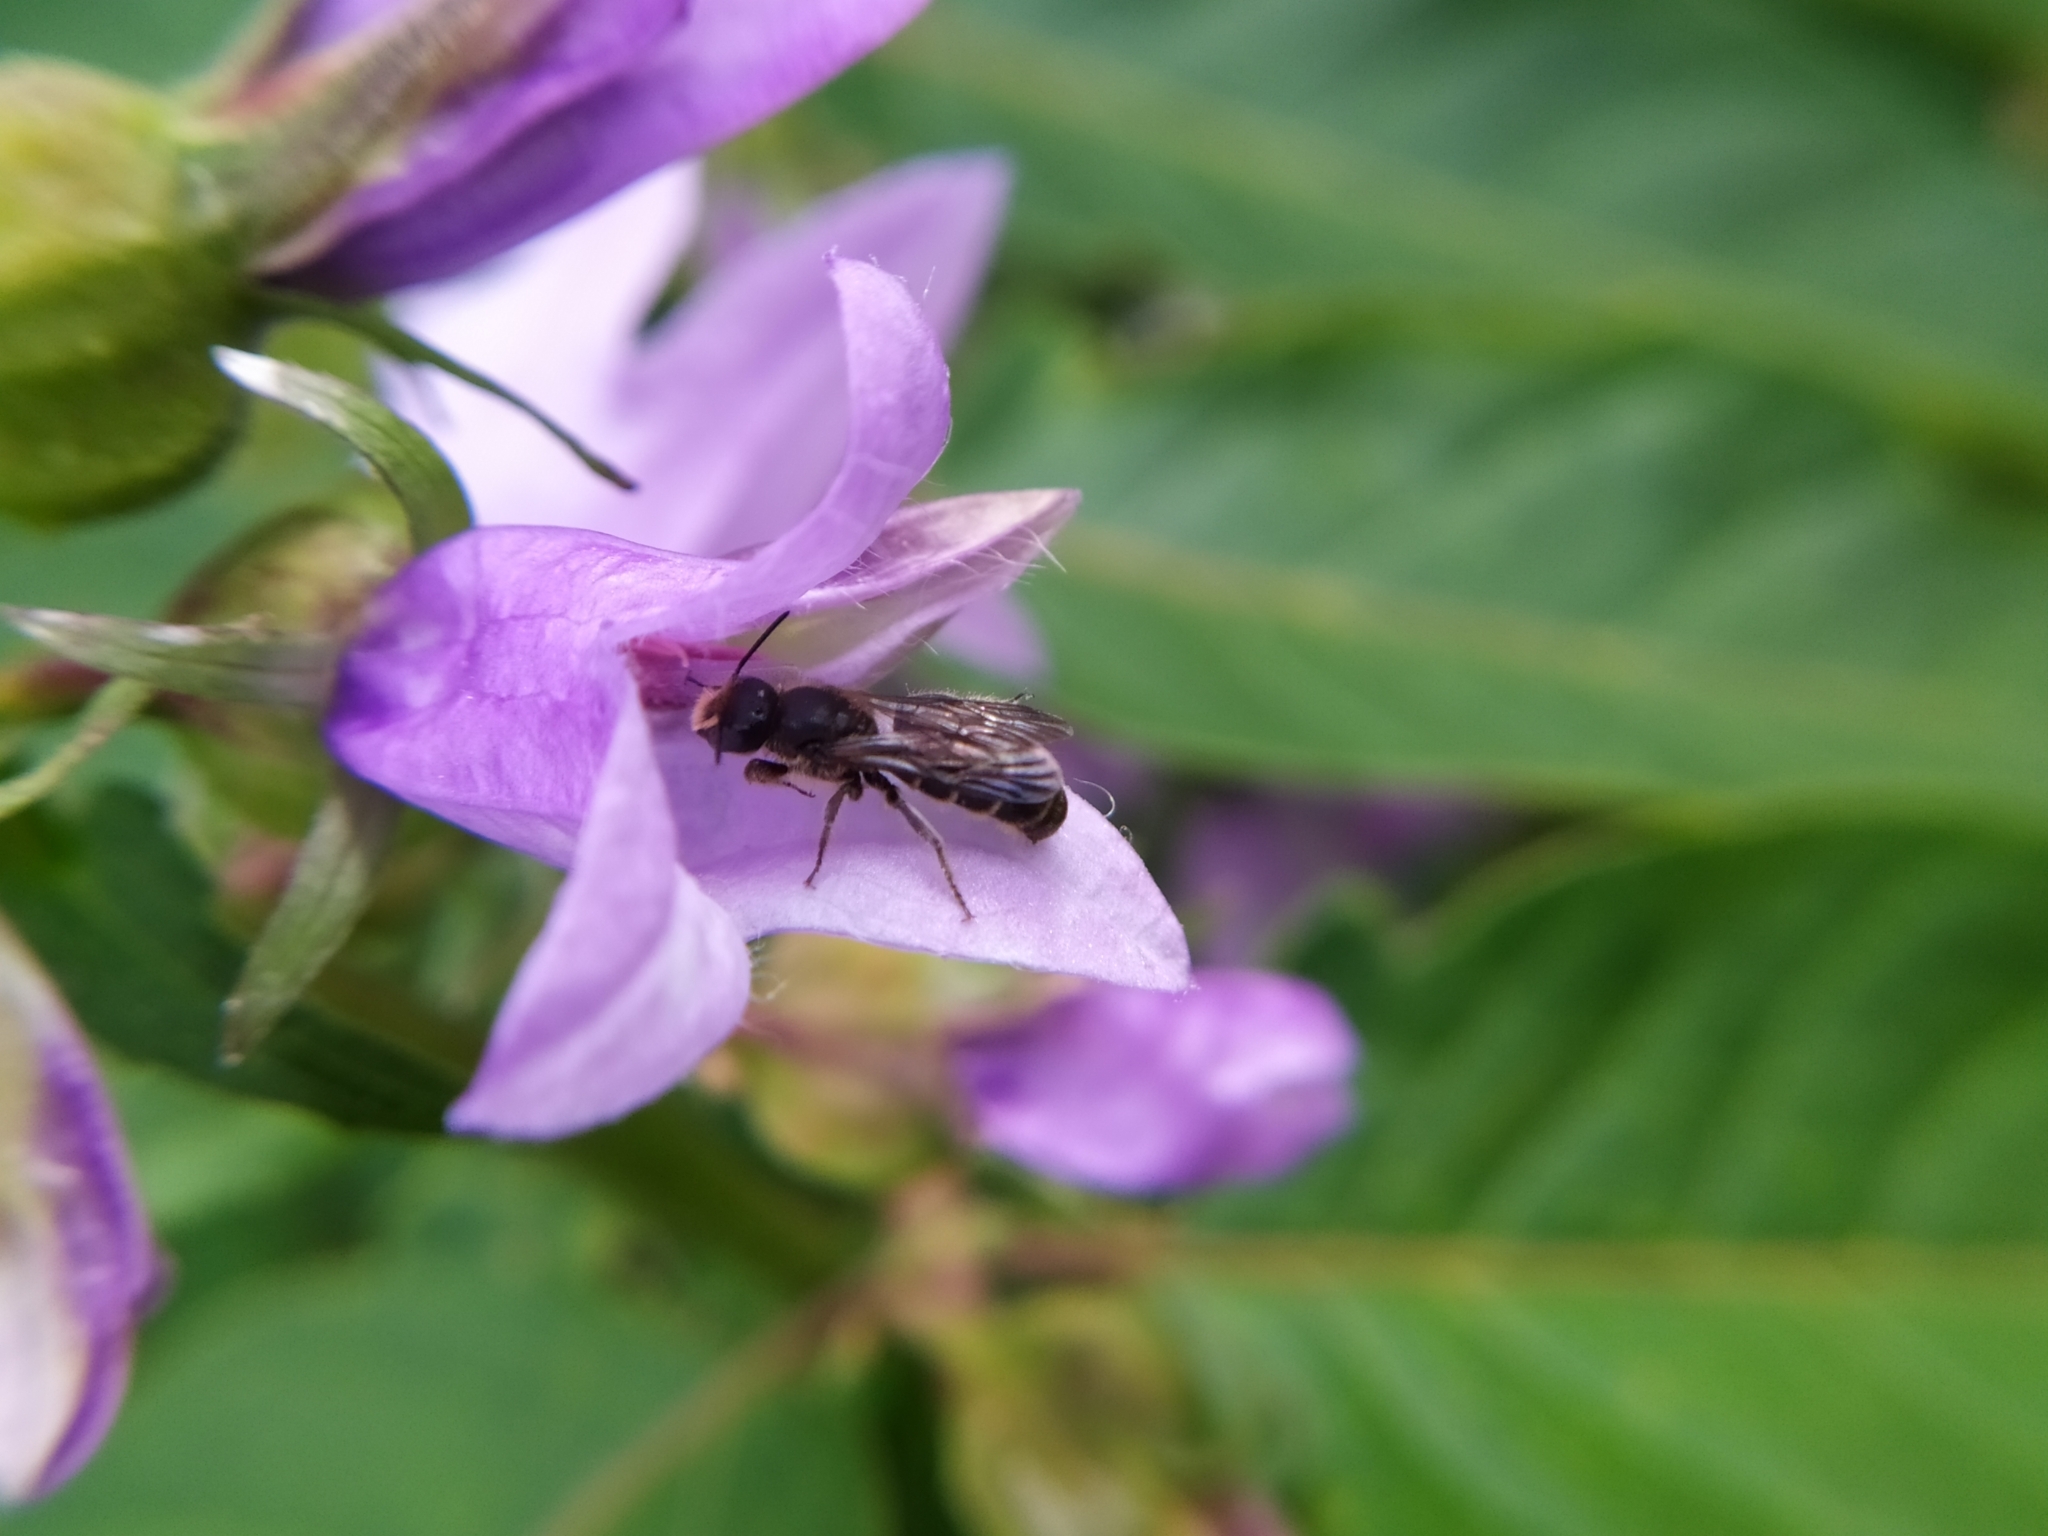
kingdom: Animalia
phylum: Arthropoda
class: Insecta
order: Hymenoptera
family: Megachilidae
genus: Chelostoma
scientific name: Chelostoma rapunculi
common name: Rampion scissor bee
